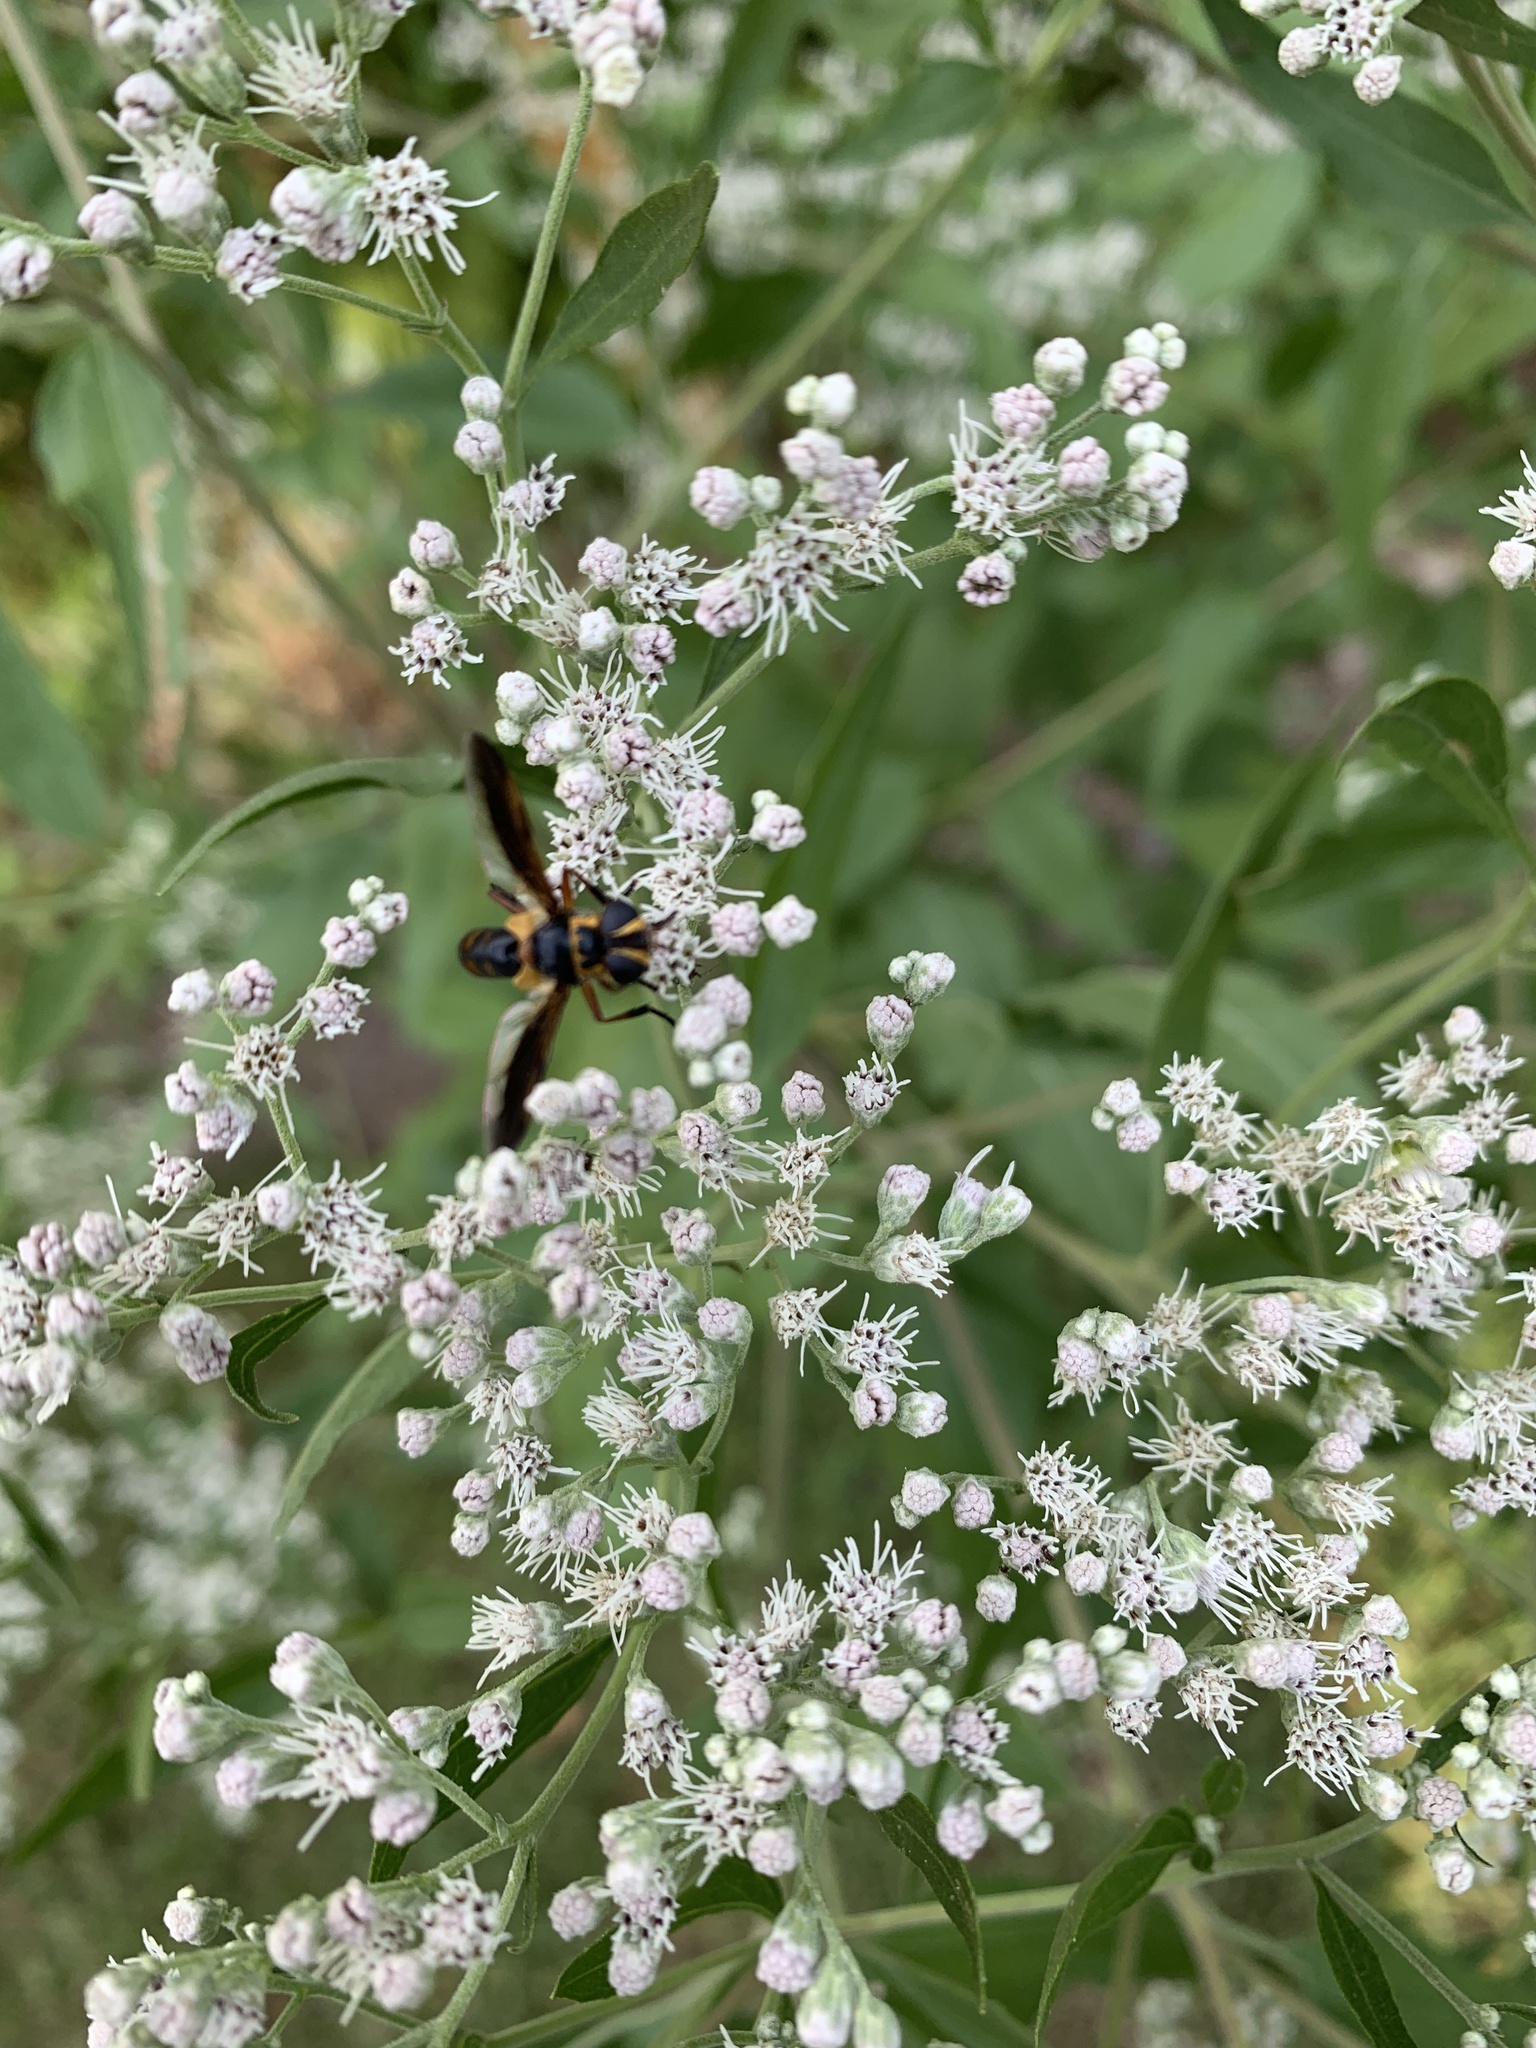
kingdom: Plantae
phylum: Tracheophyta
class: Magnoliopsida
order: Asterales
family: Asteraceae
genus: Eupatorium
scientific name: Eupatorium serotinum
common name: Late boneset
